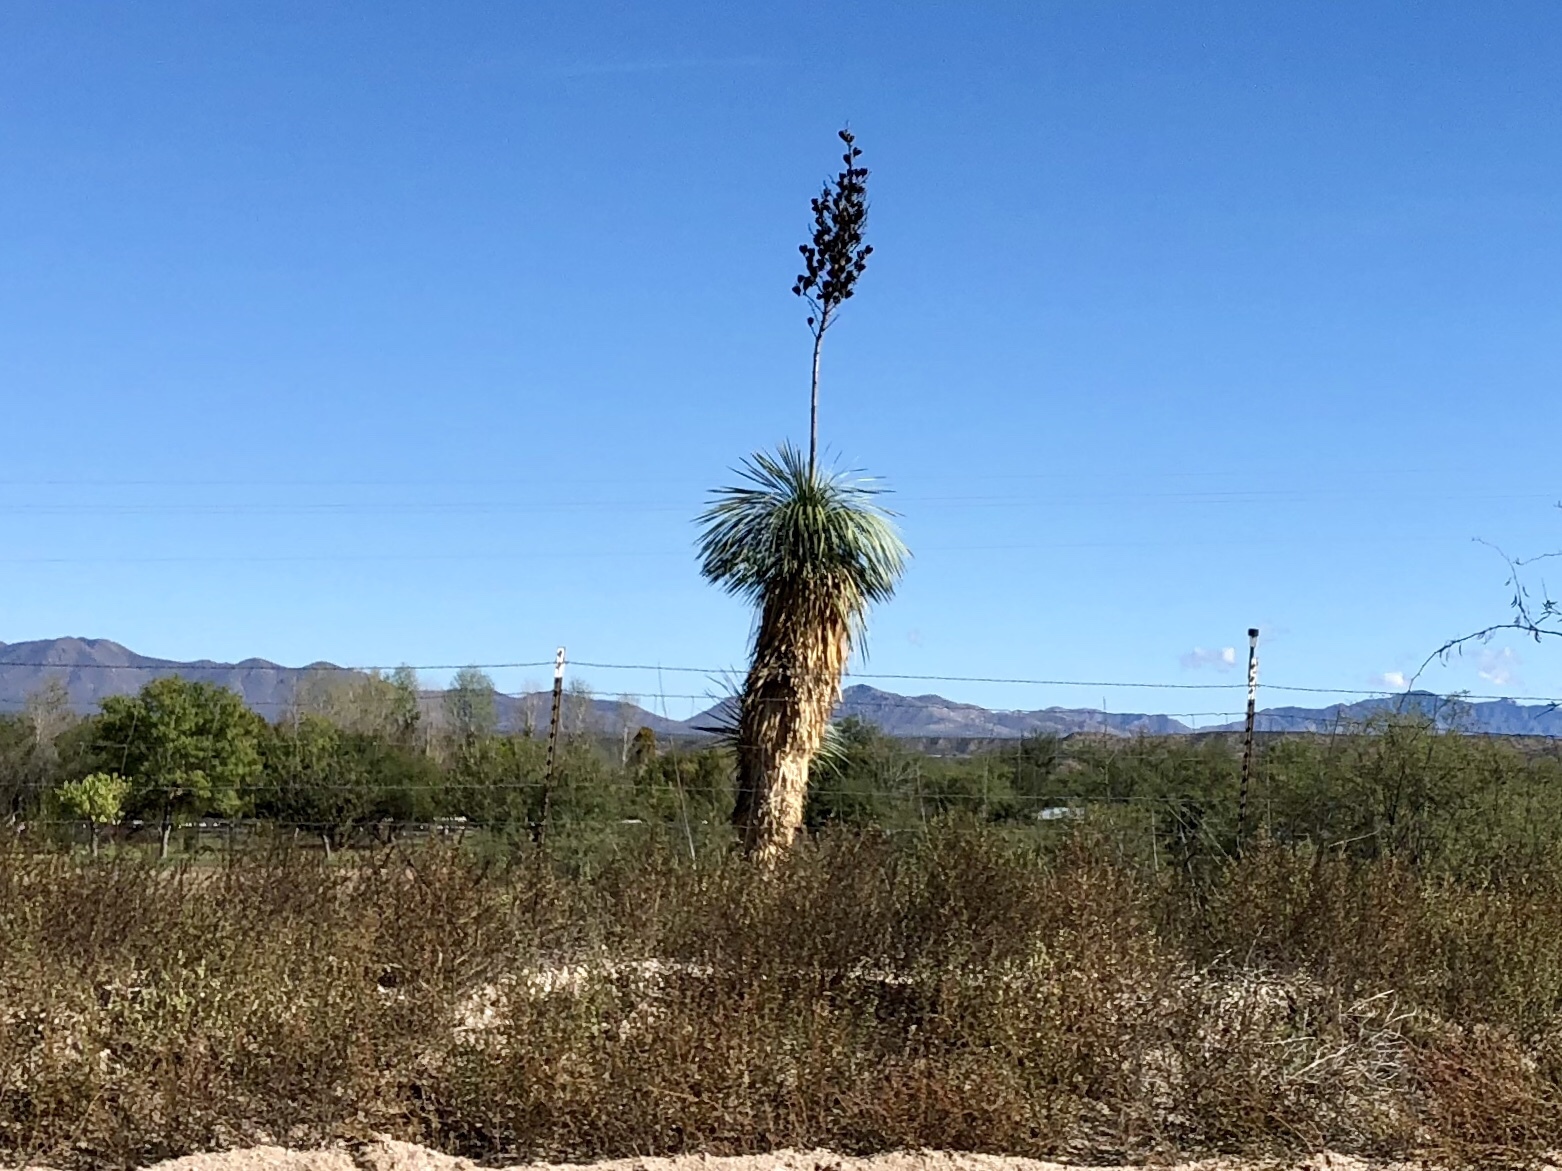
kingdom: Plantae
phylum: Tracheophyta
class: Liliopsida
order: Asparagales
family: Asparagaceae
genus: Yucca
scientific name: Yucca elata
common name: Palmella
